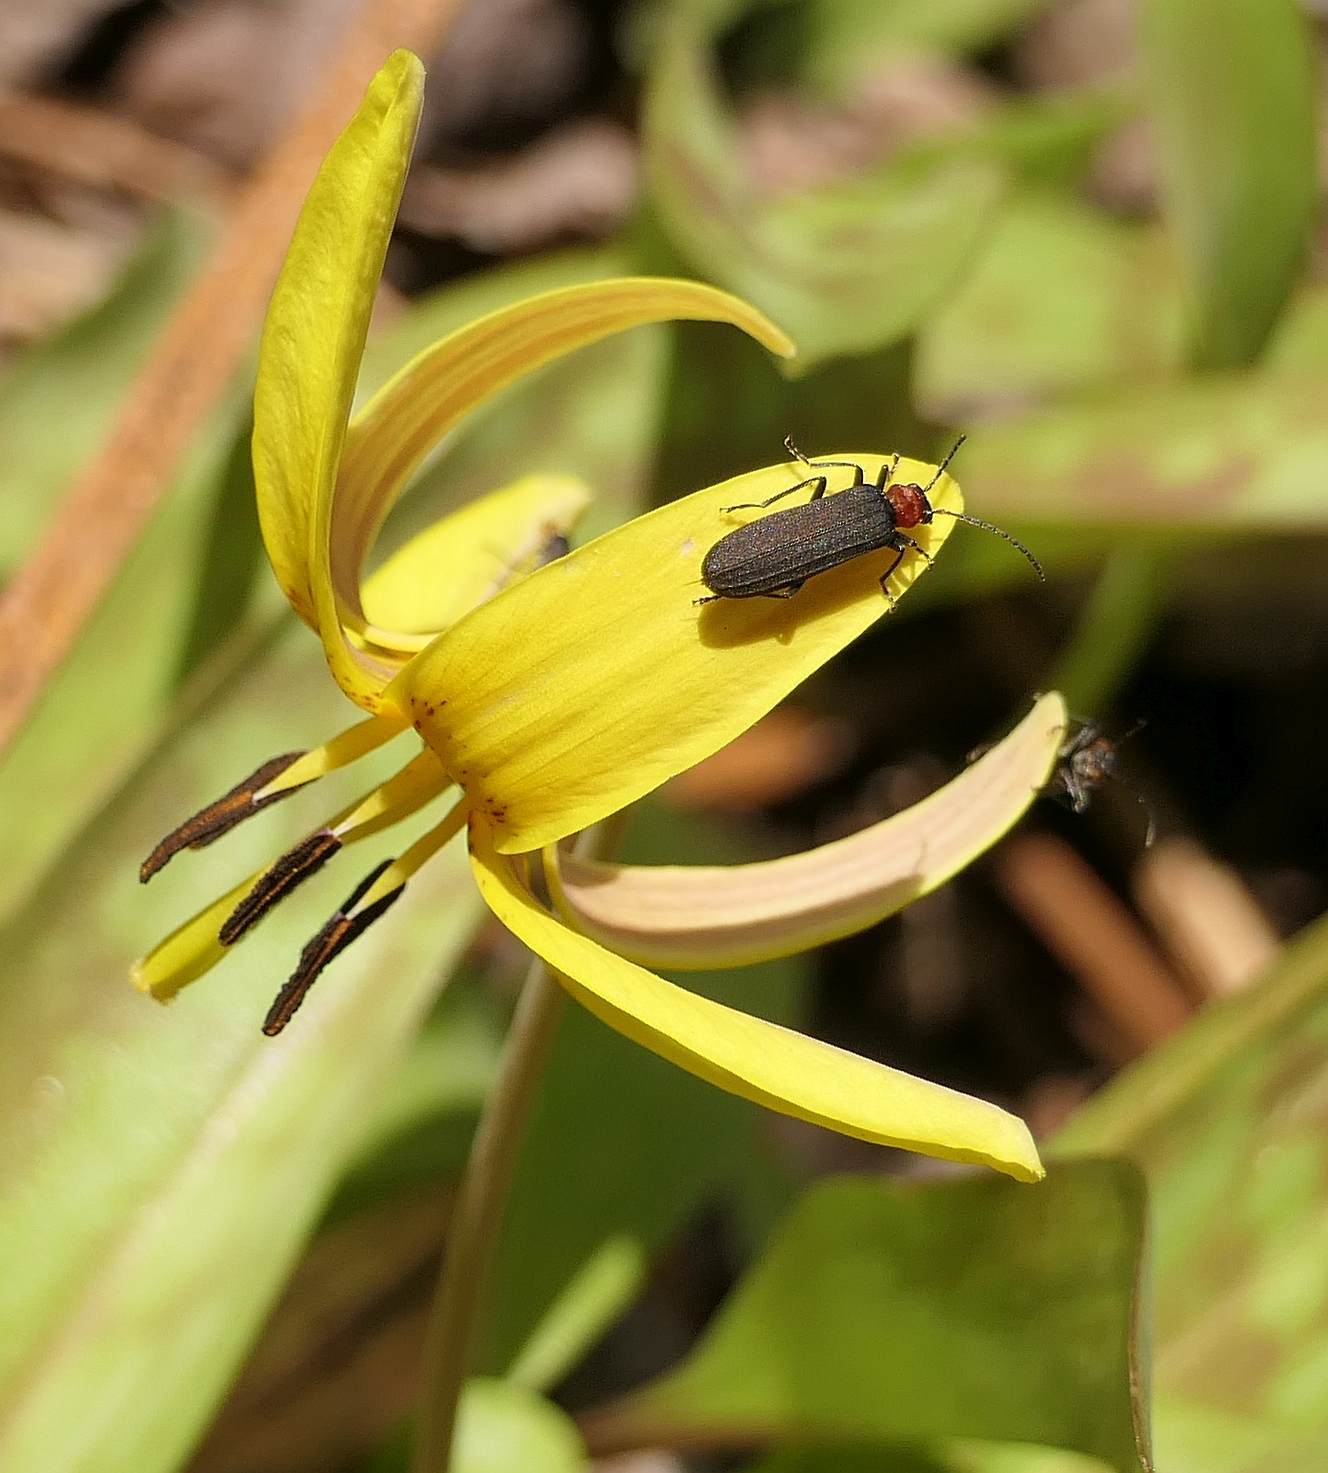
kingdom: Animalia
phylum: Arthropoda
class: Insecta
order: Coleoptera
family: Oedemeridae
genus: Ischnomera
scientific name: Ischnomera
